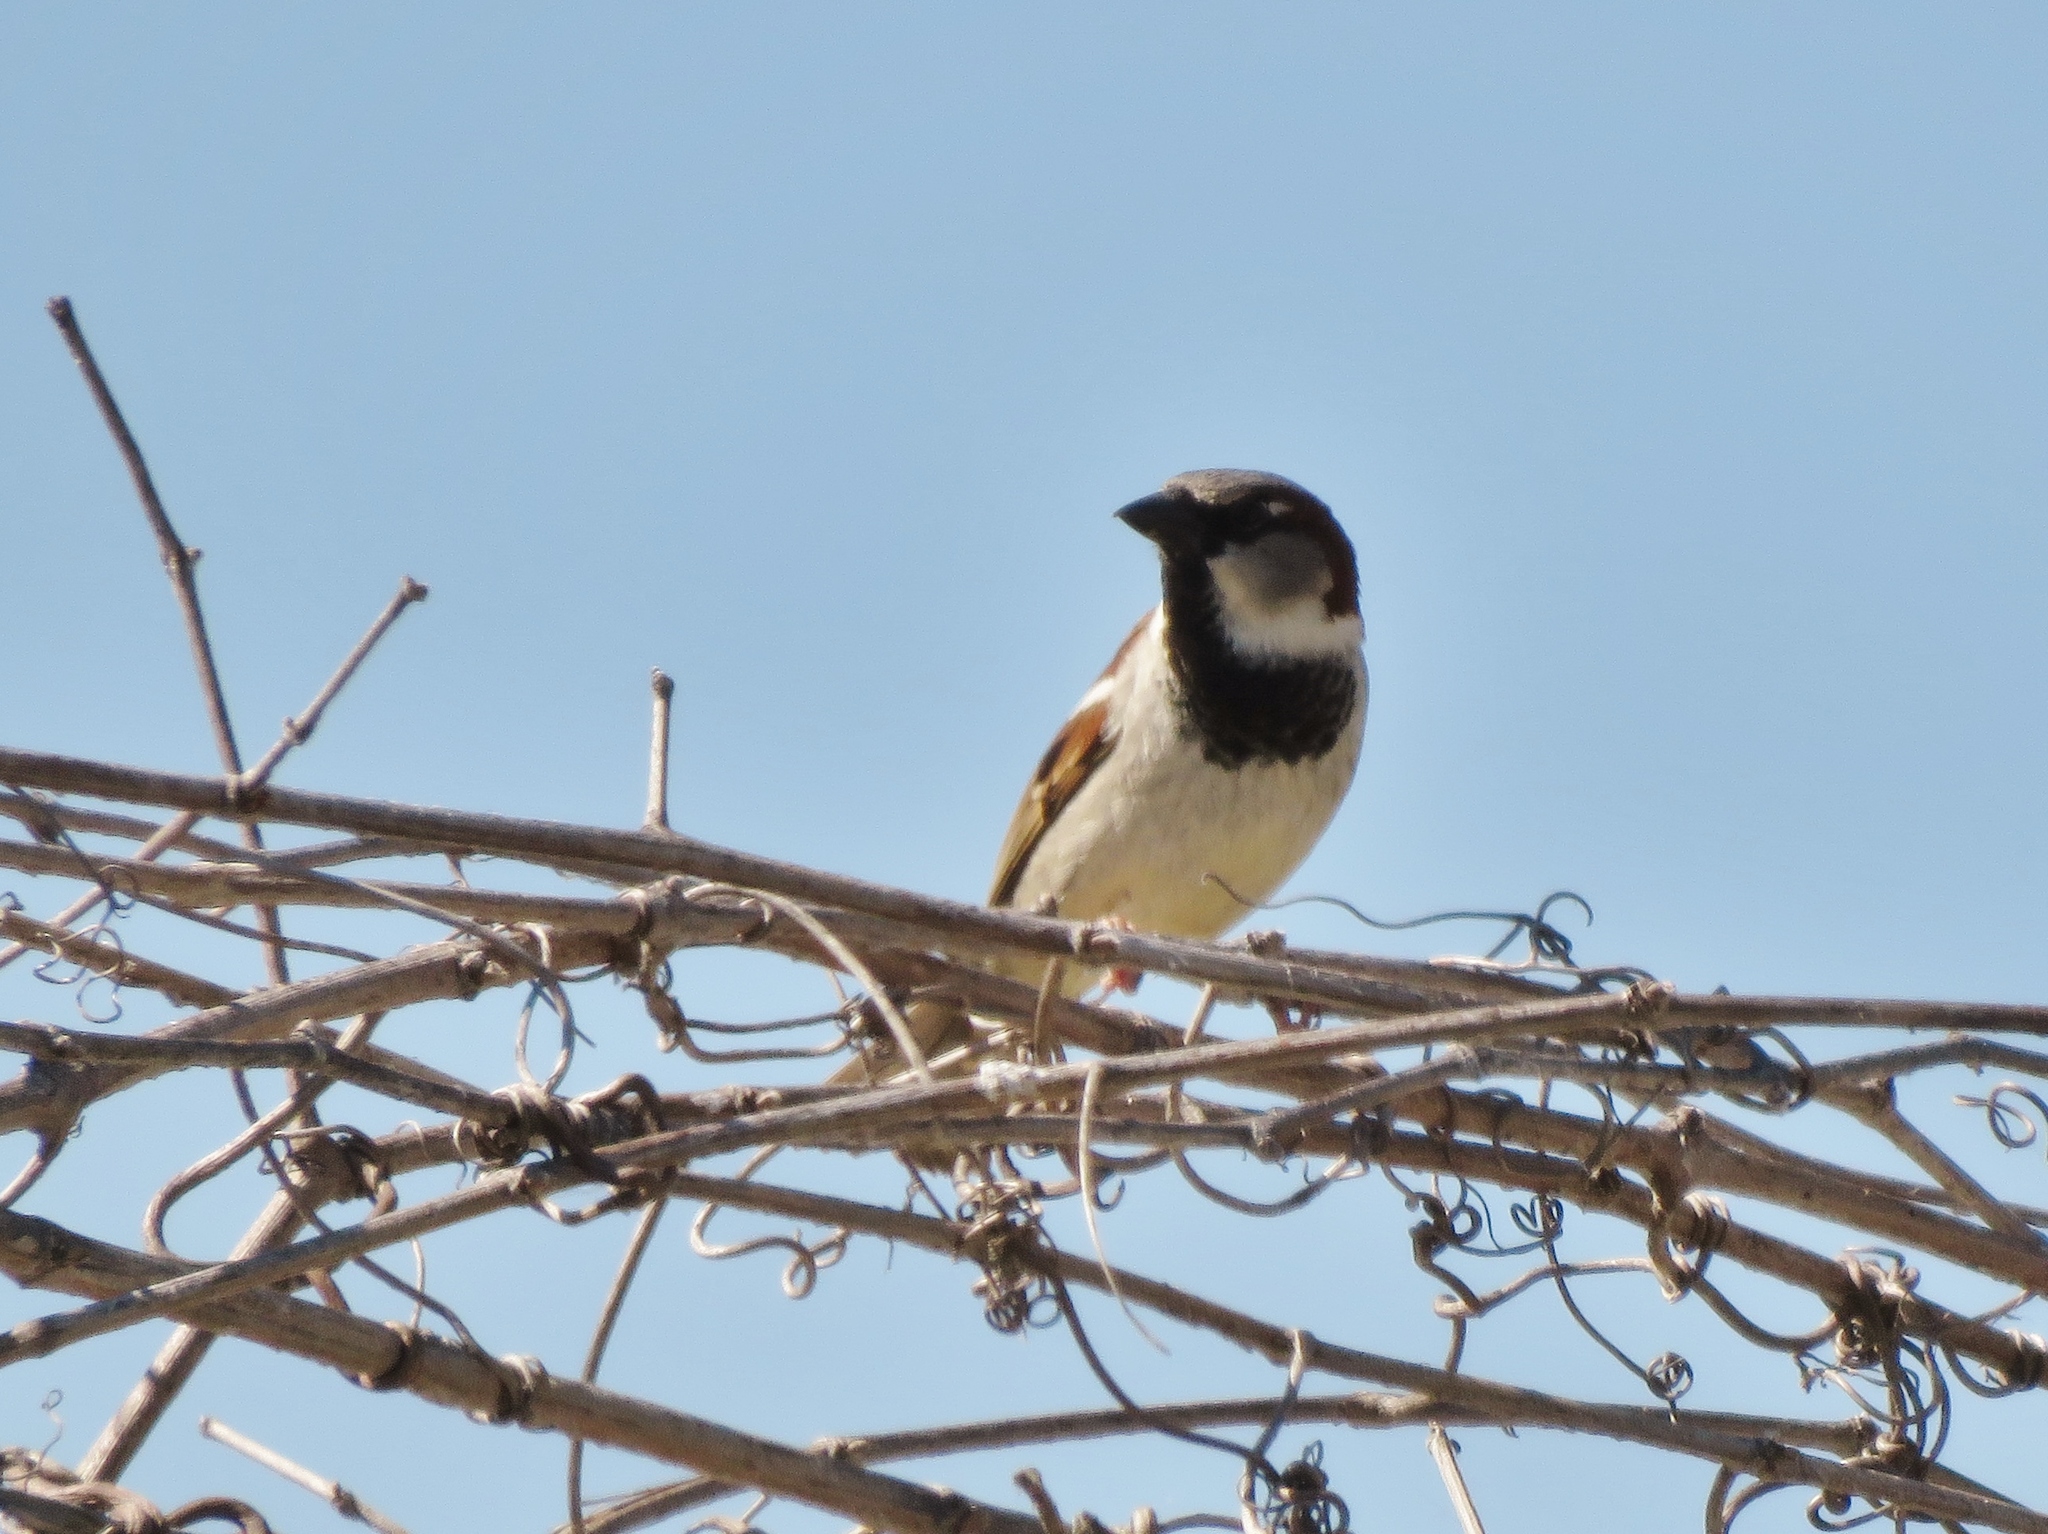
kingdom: Animalia
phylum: Chordata
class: Aves
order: Passeriformes
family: Passeridae
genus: Passer
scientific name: Passer domesticus
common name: House sparrow
